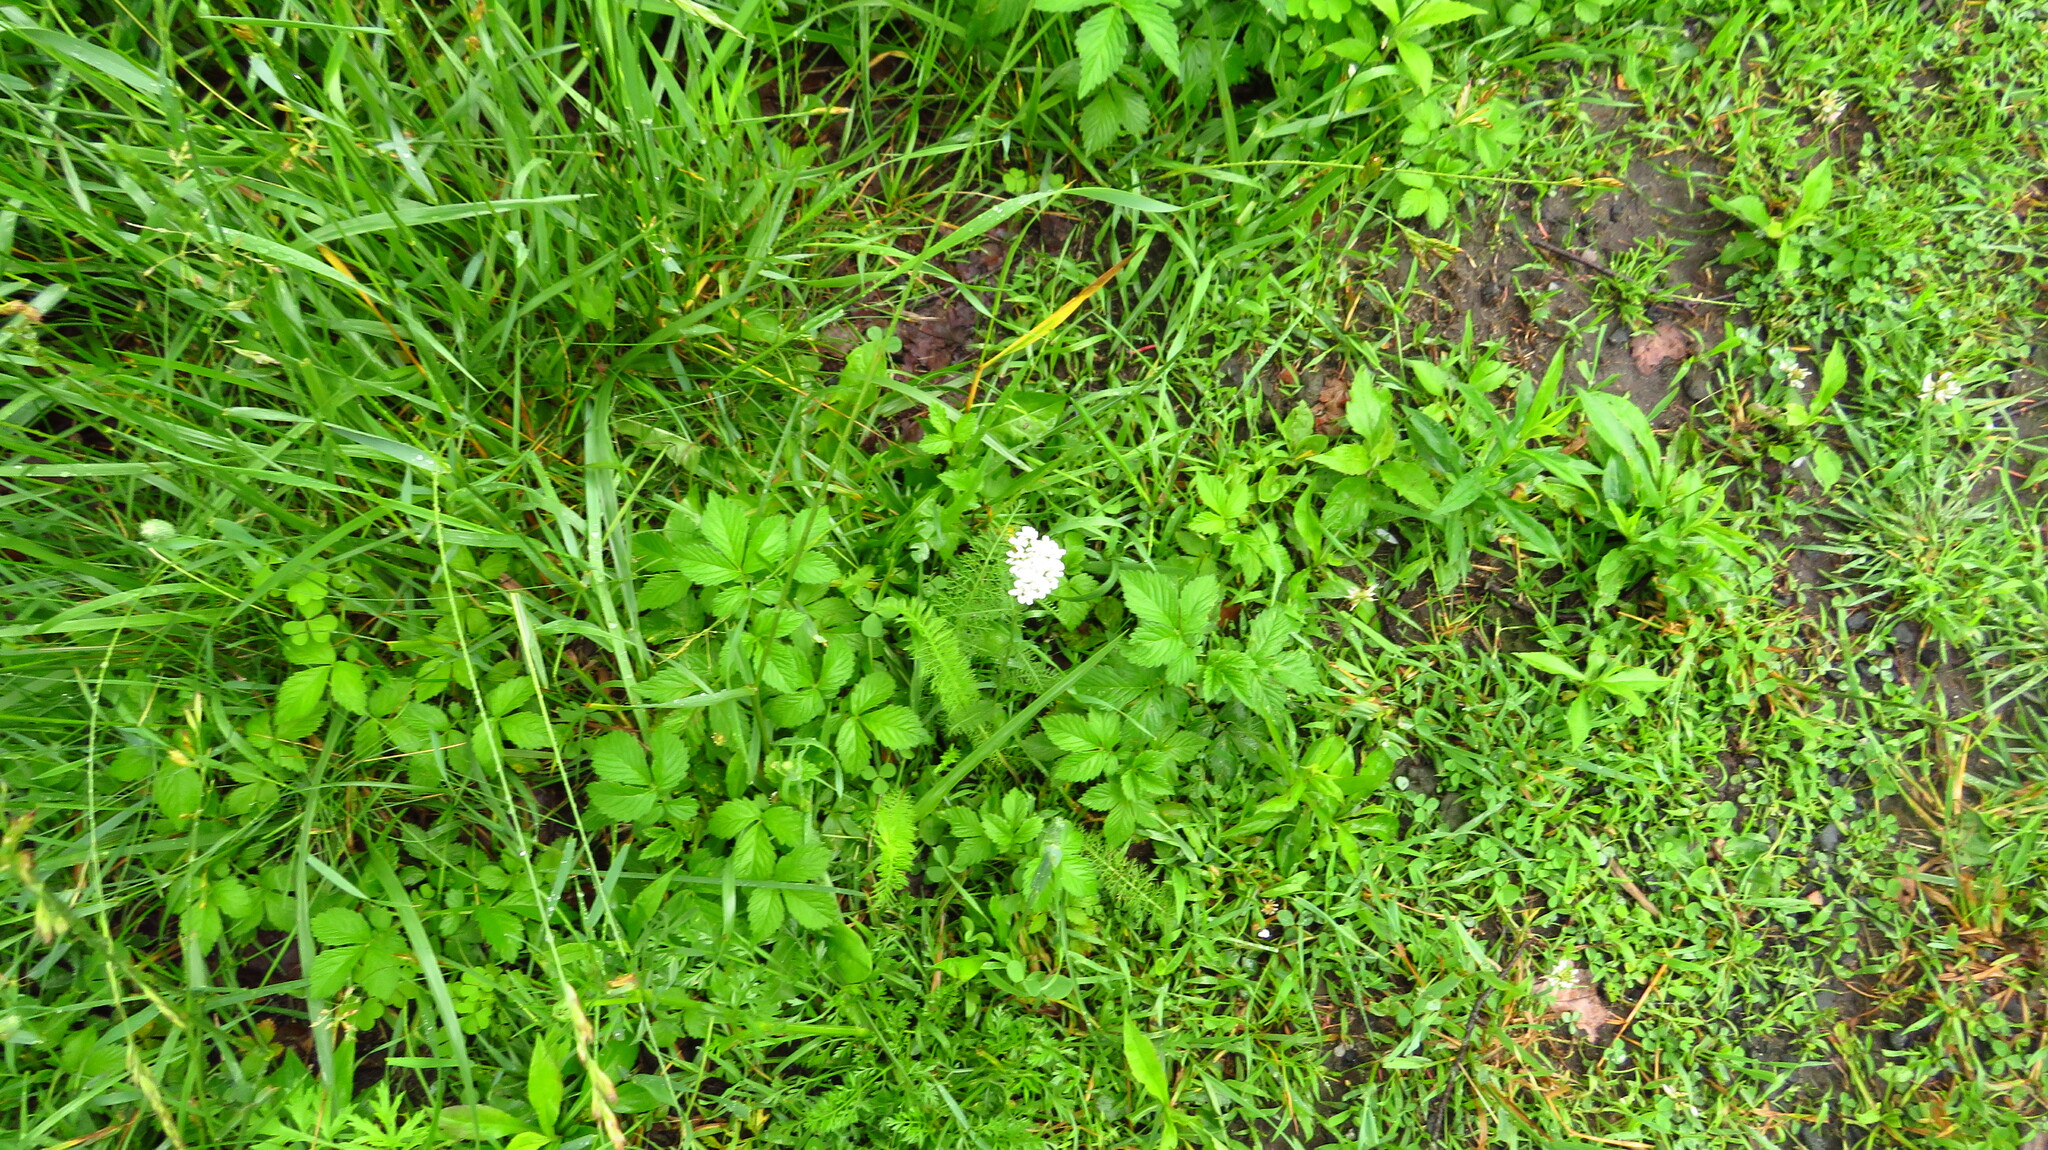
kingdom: Plantae
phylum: Tracheophyta
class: Magnoliopsida
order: Asterales
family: Asteraceae
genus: Achillea
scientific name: Achillea millefolium
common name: Yarrow
